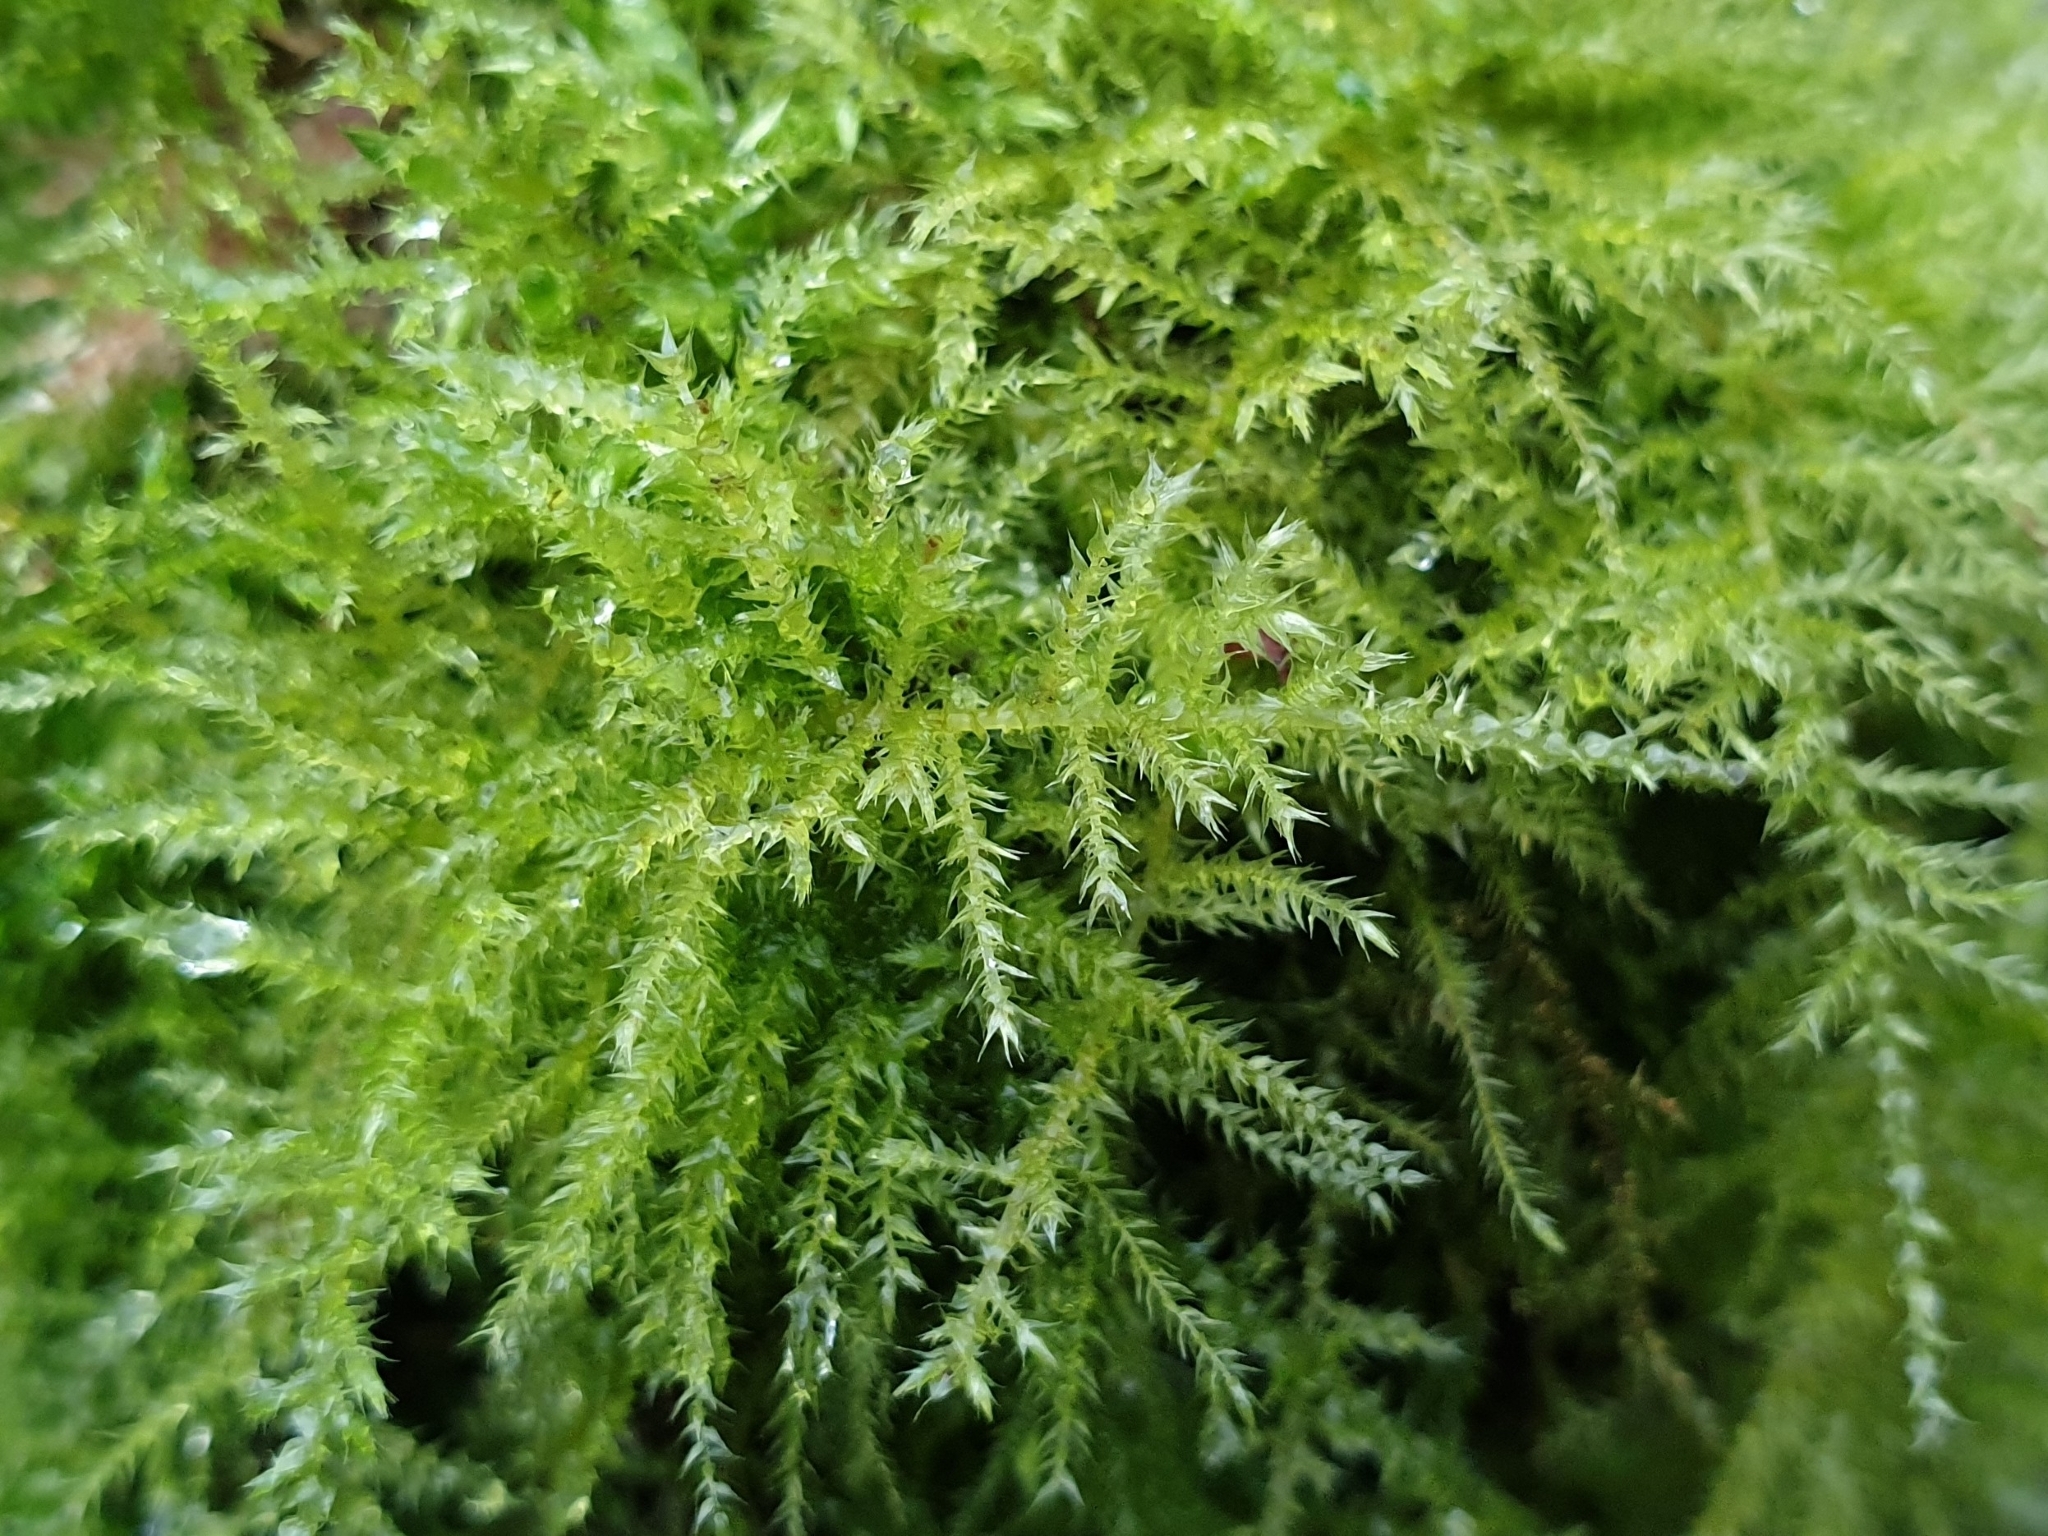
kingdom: Plantae
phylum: Bryophyta
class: Bryopsida
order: Hypnales
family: Brachytheciaceae
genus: Kindbergia
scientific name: Kindbergia praelonga
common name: Slender beaked moss
